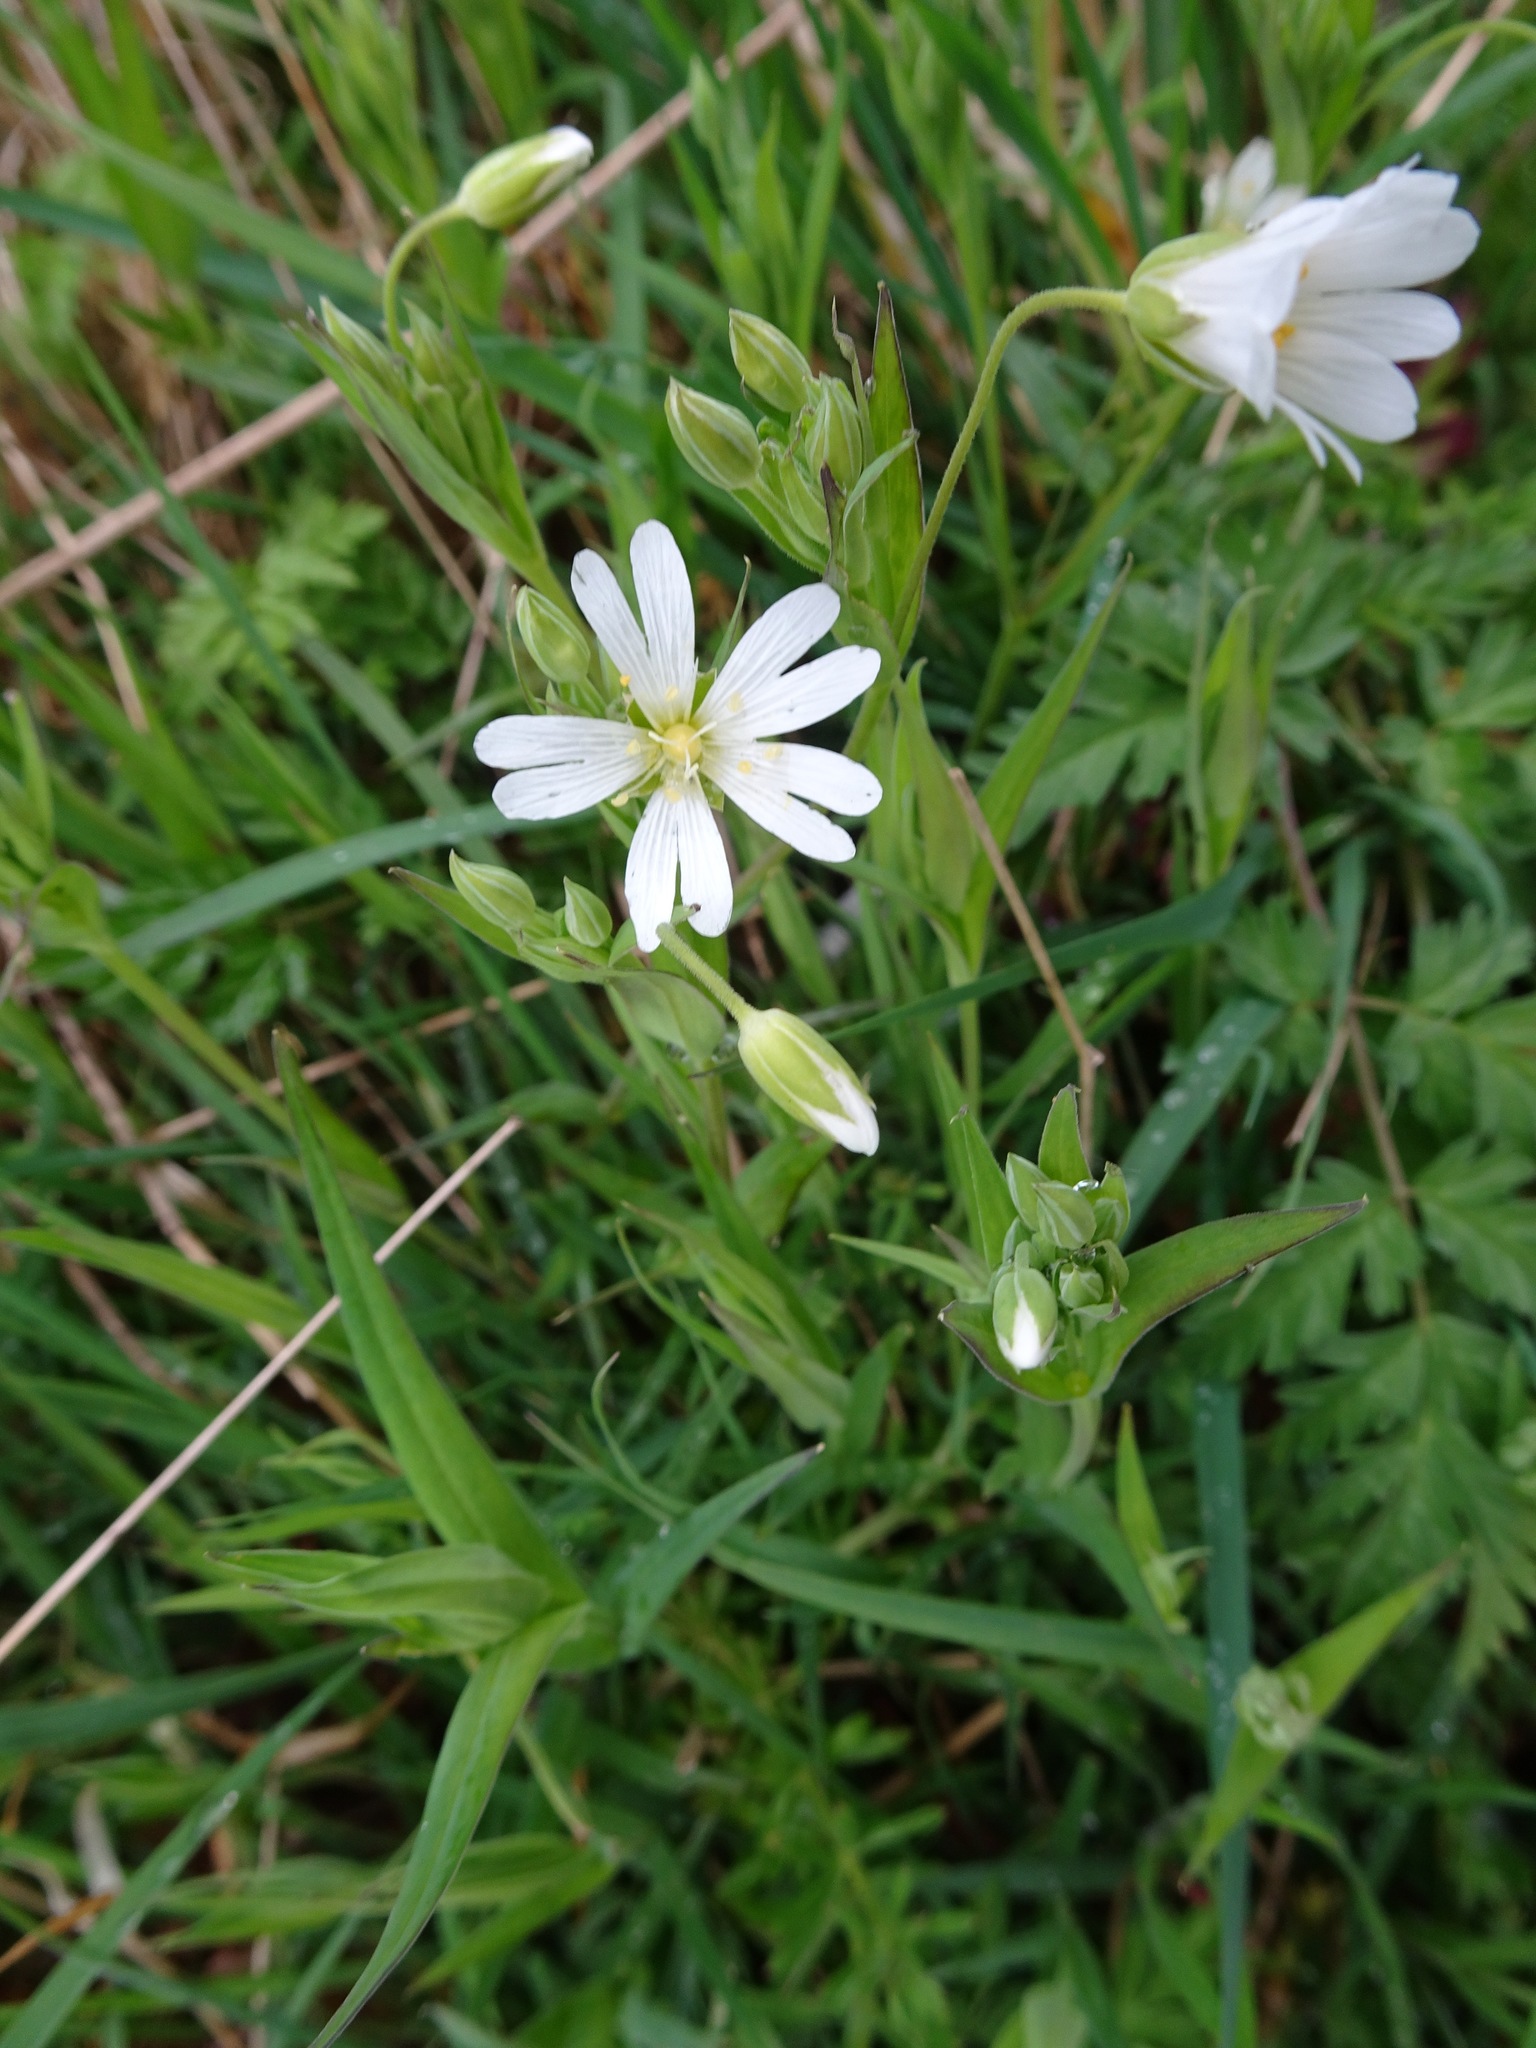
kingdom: Plantae
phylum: Tracheophyta
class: Magnoliopsida
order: Caryophyllales
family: Caryophyllaceae
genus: Rabelera
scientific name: Rabelera holostea
